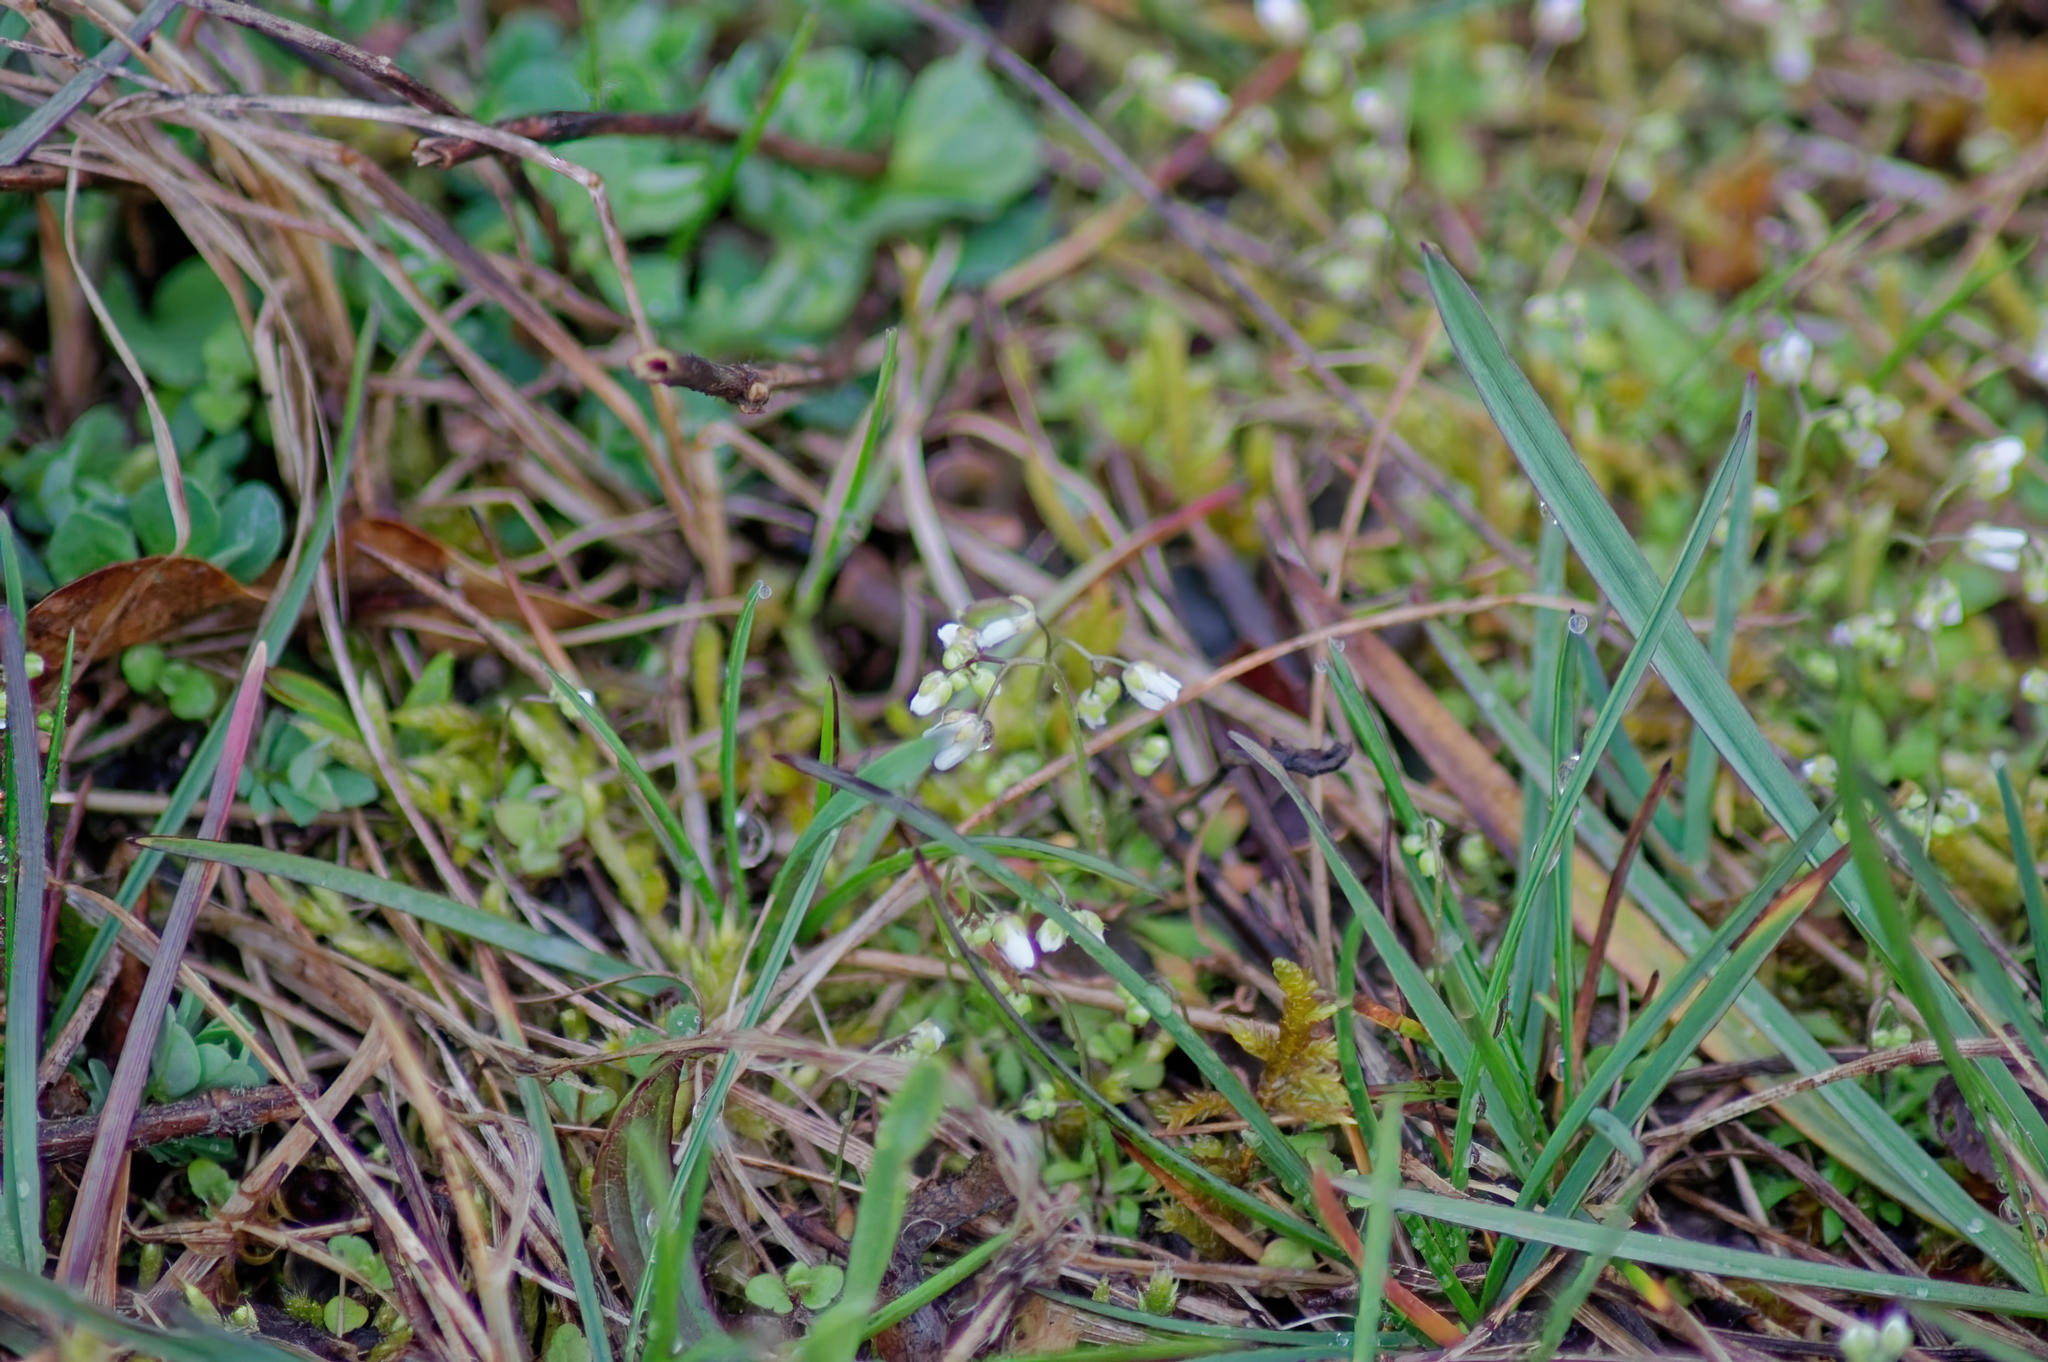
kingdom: Plantae
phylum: Tracheophyta
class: Magnoliopsida
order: Brassicales
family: Brassicaceae
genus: Draba
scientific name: Draba verna
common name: Spring draba
